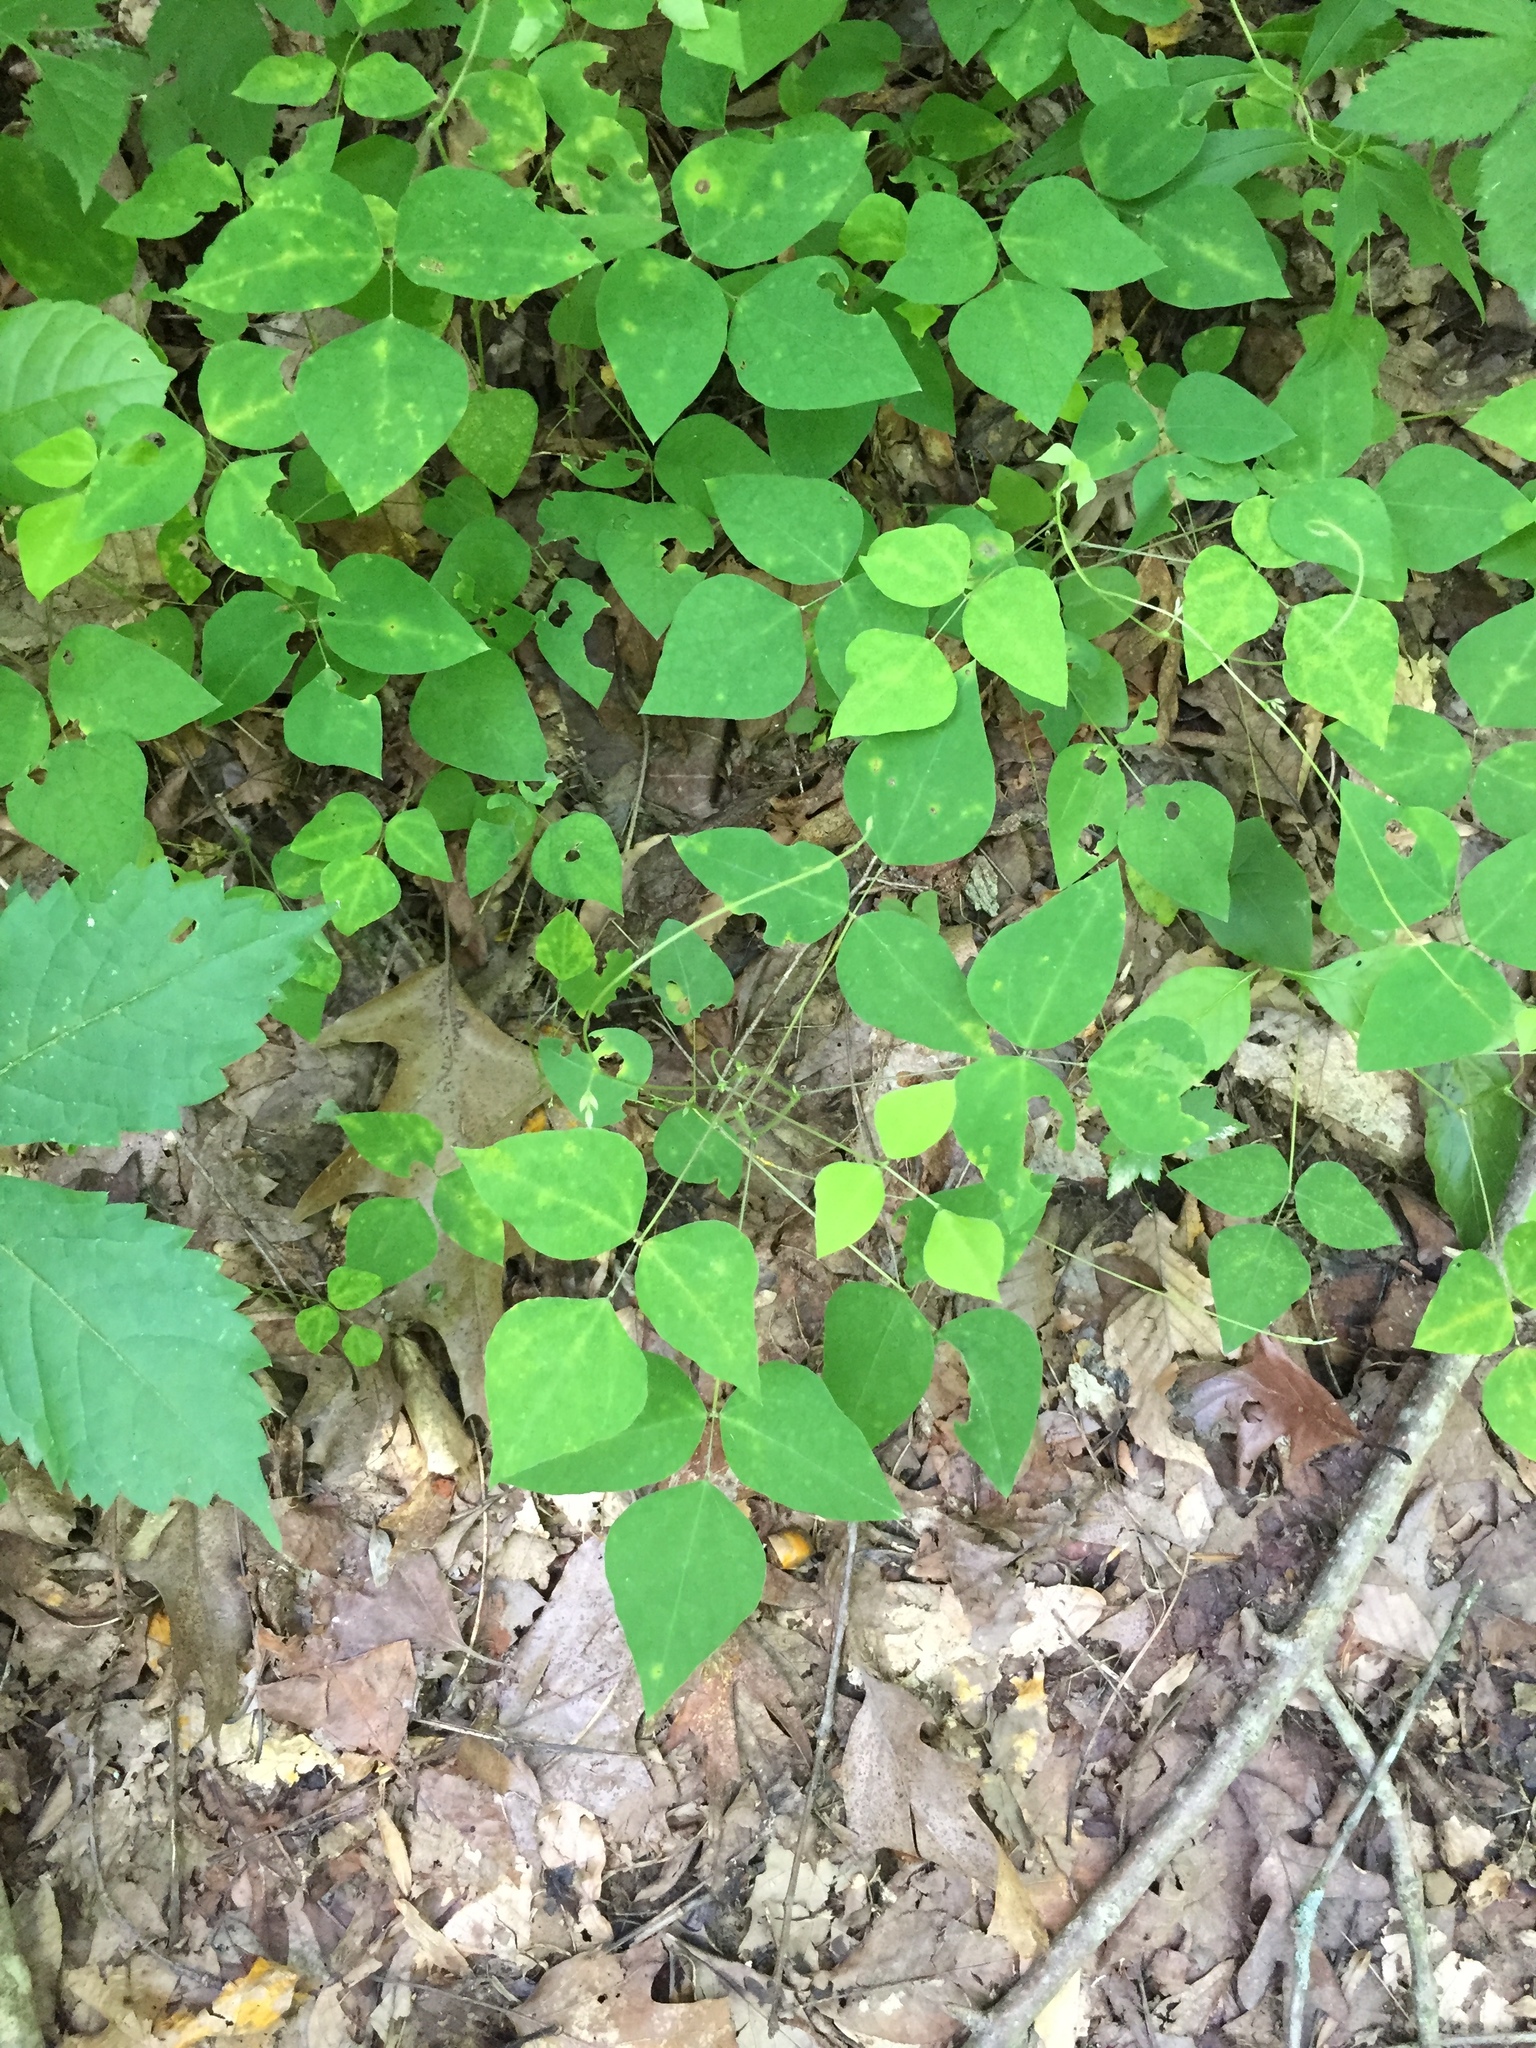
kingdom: Plantae
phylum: Tracheophyta
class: Magnoliopsida
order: Fabales
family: Fabaceae
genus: Amphicarpaea
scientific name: Amphicarpaea bracteata
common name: American hog peanut
